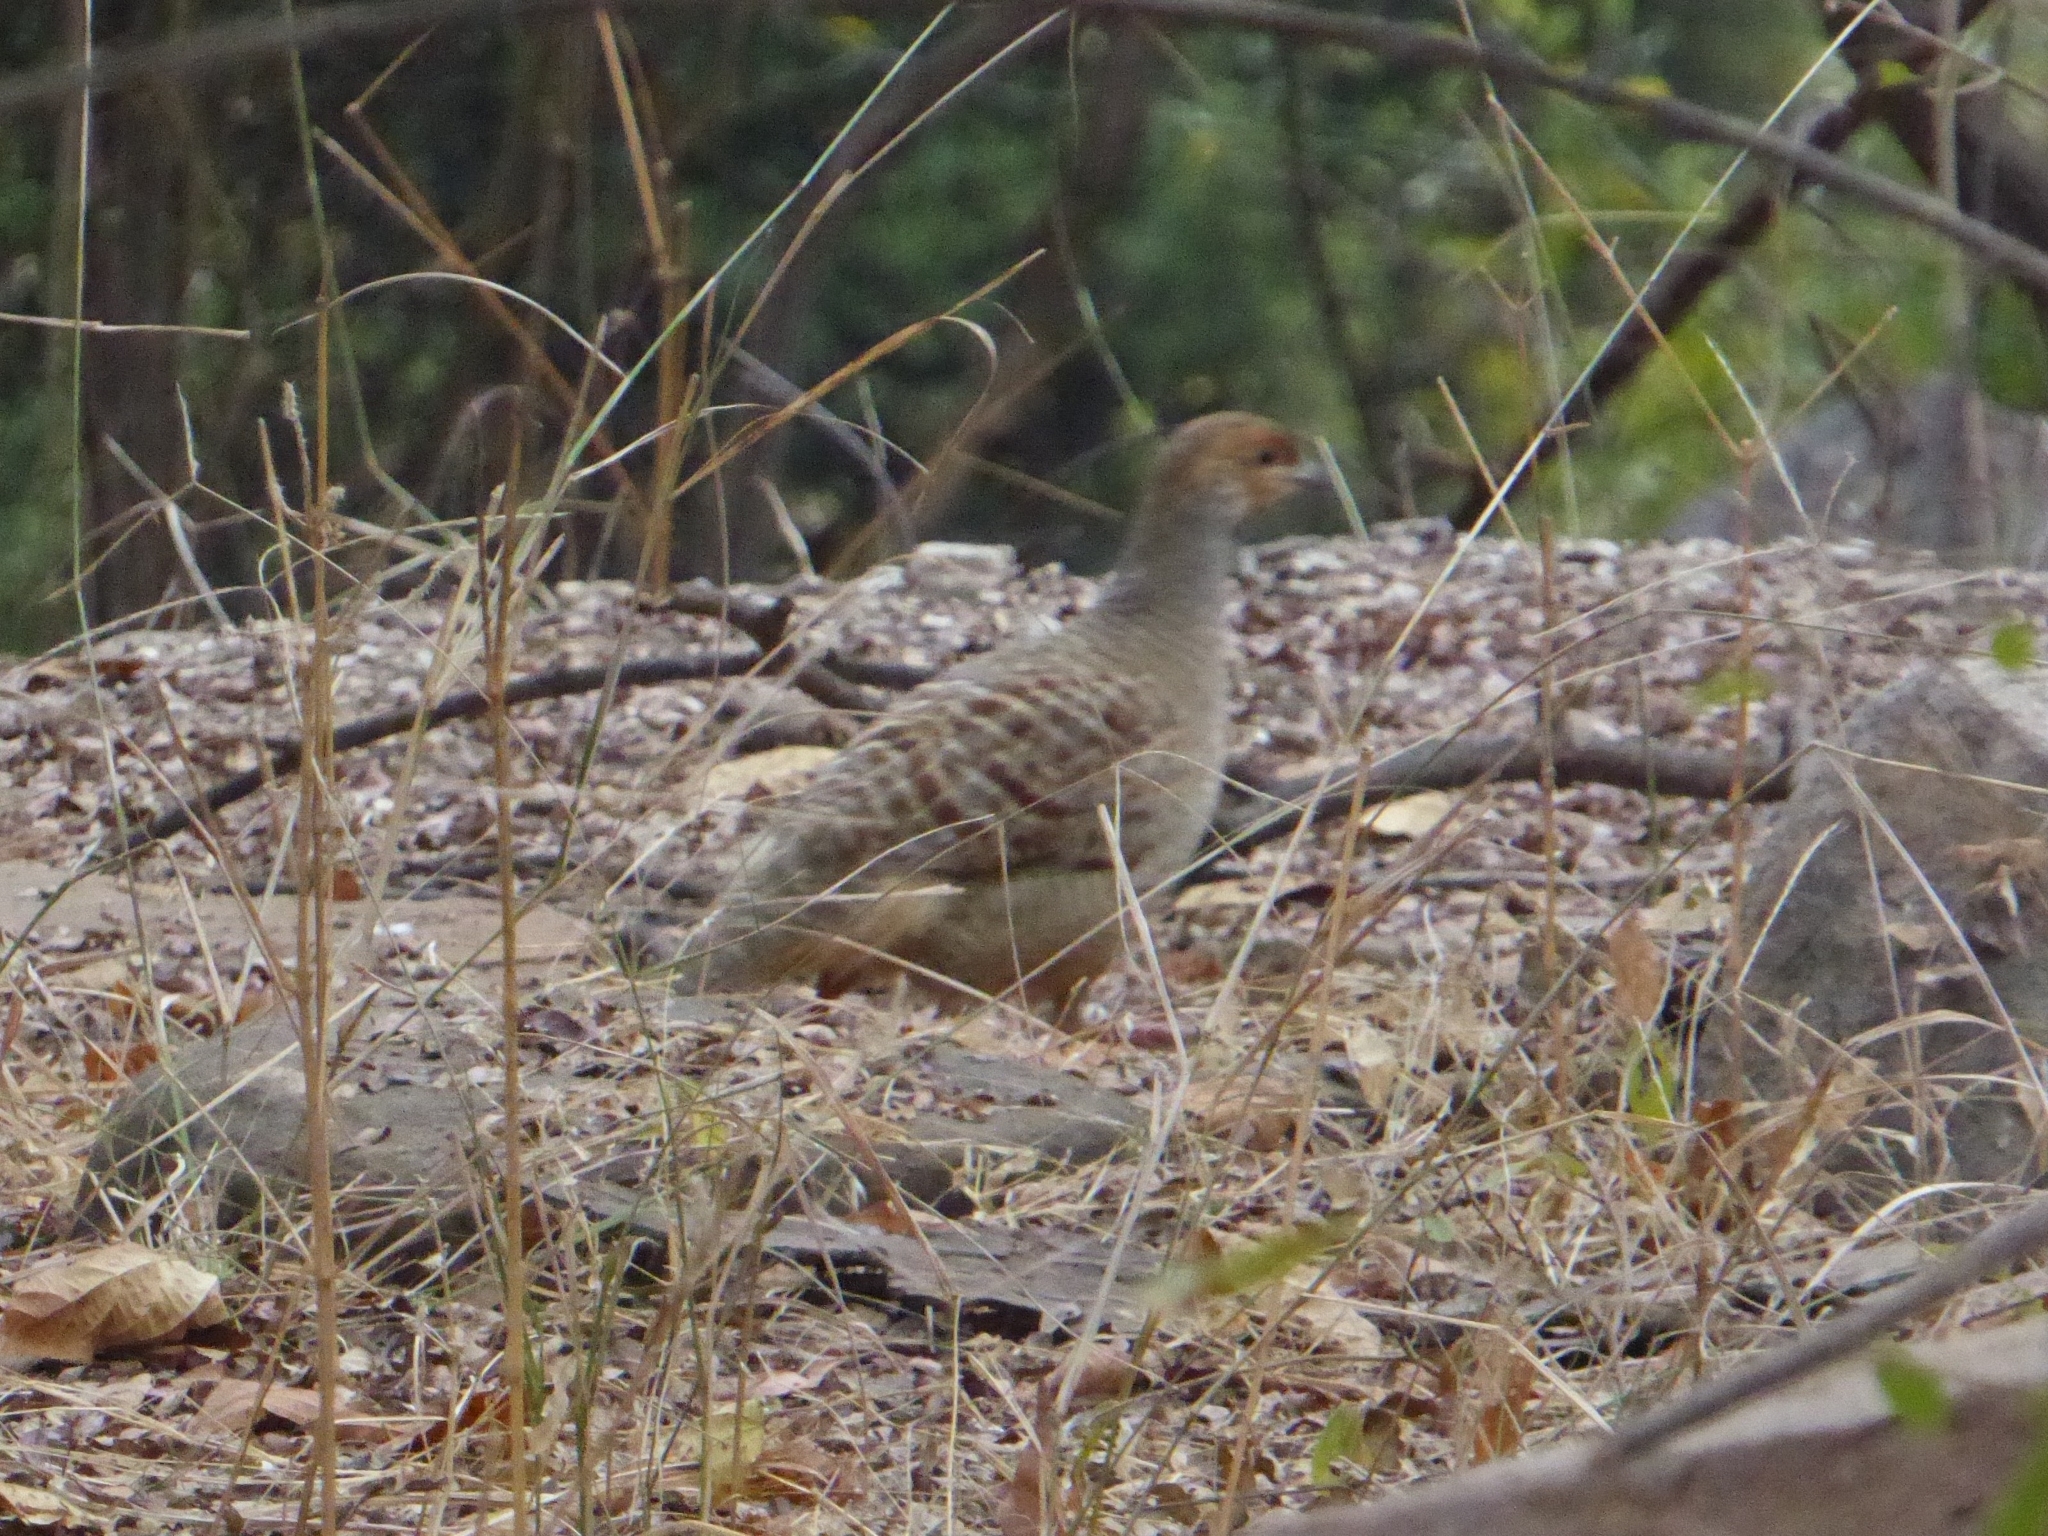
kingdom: Animalia
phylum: Chordata
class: Aves
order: Galliformes
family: Phasianidae
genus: Ortygornis
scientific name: Ortygornis pondicerianus
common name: Grey francolin
